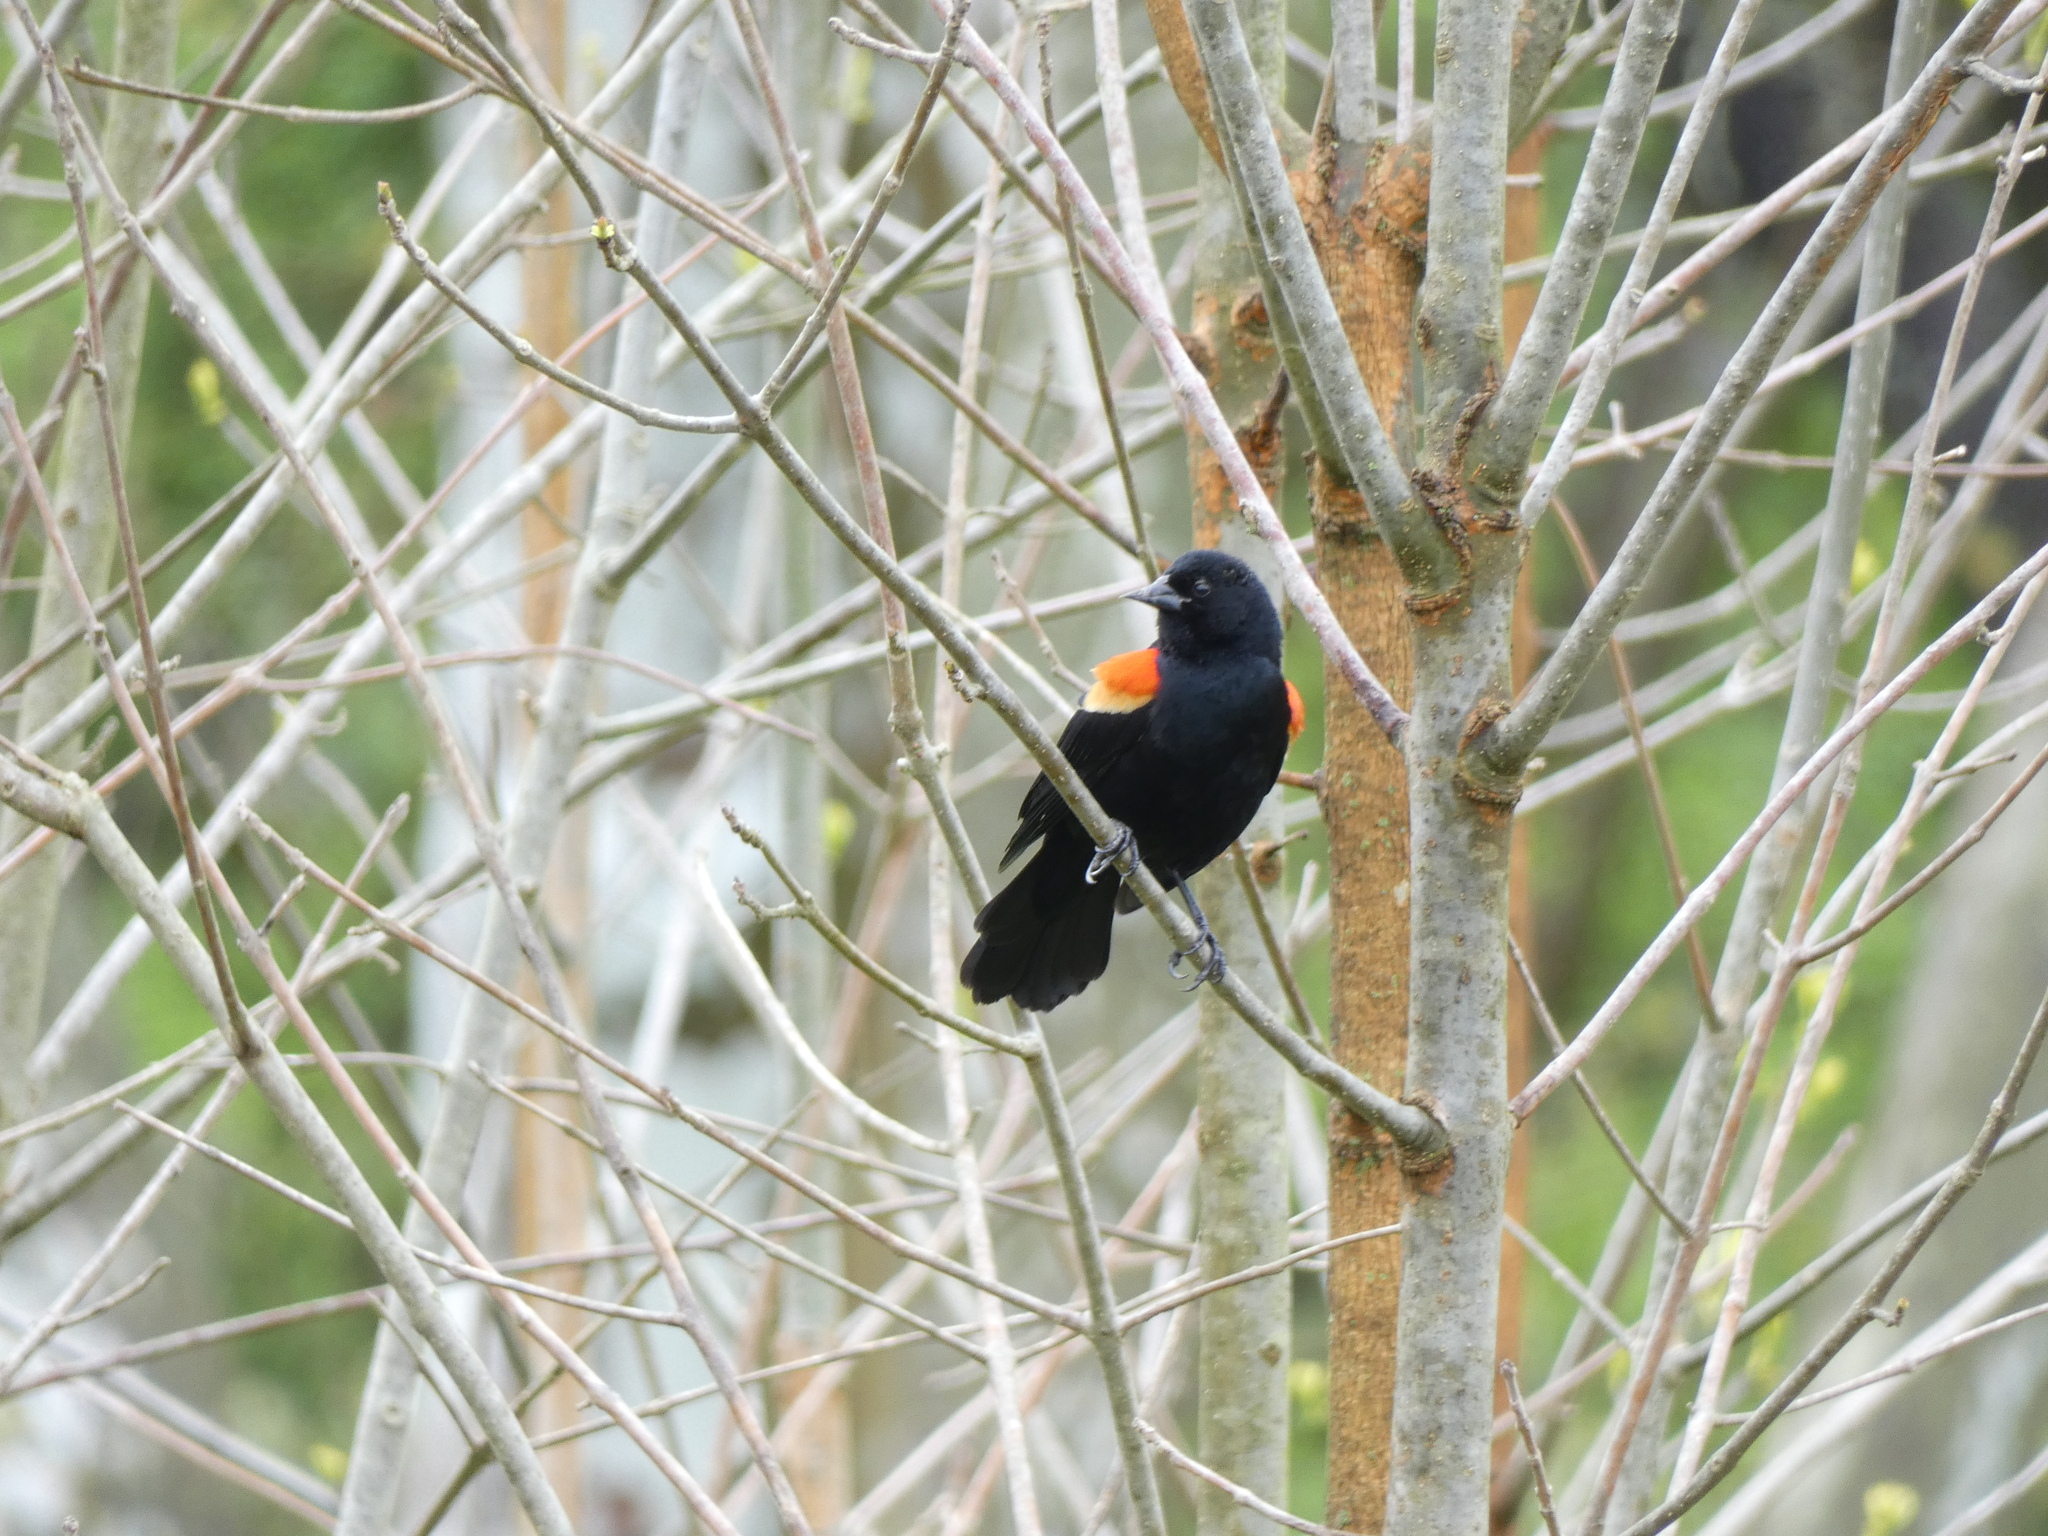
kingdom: Animalia
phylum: Chordata
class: Aves
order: Passeriformes
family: Icteridae
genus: Agelaius
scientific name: Agelaius phoeniceus
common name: Red-winged blackbird
